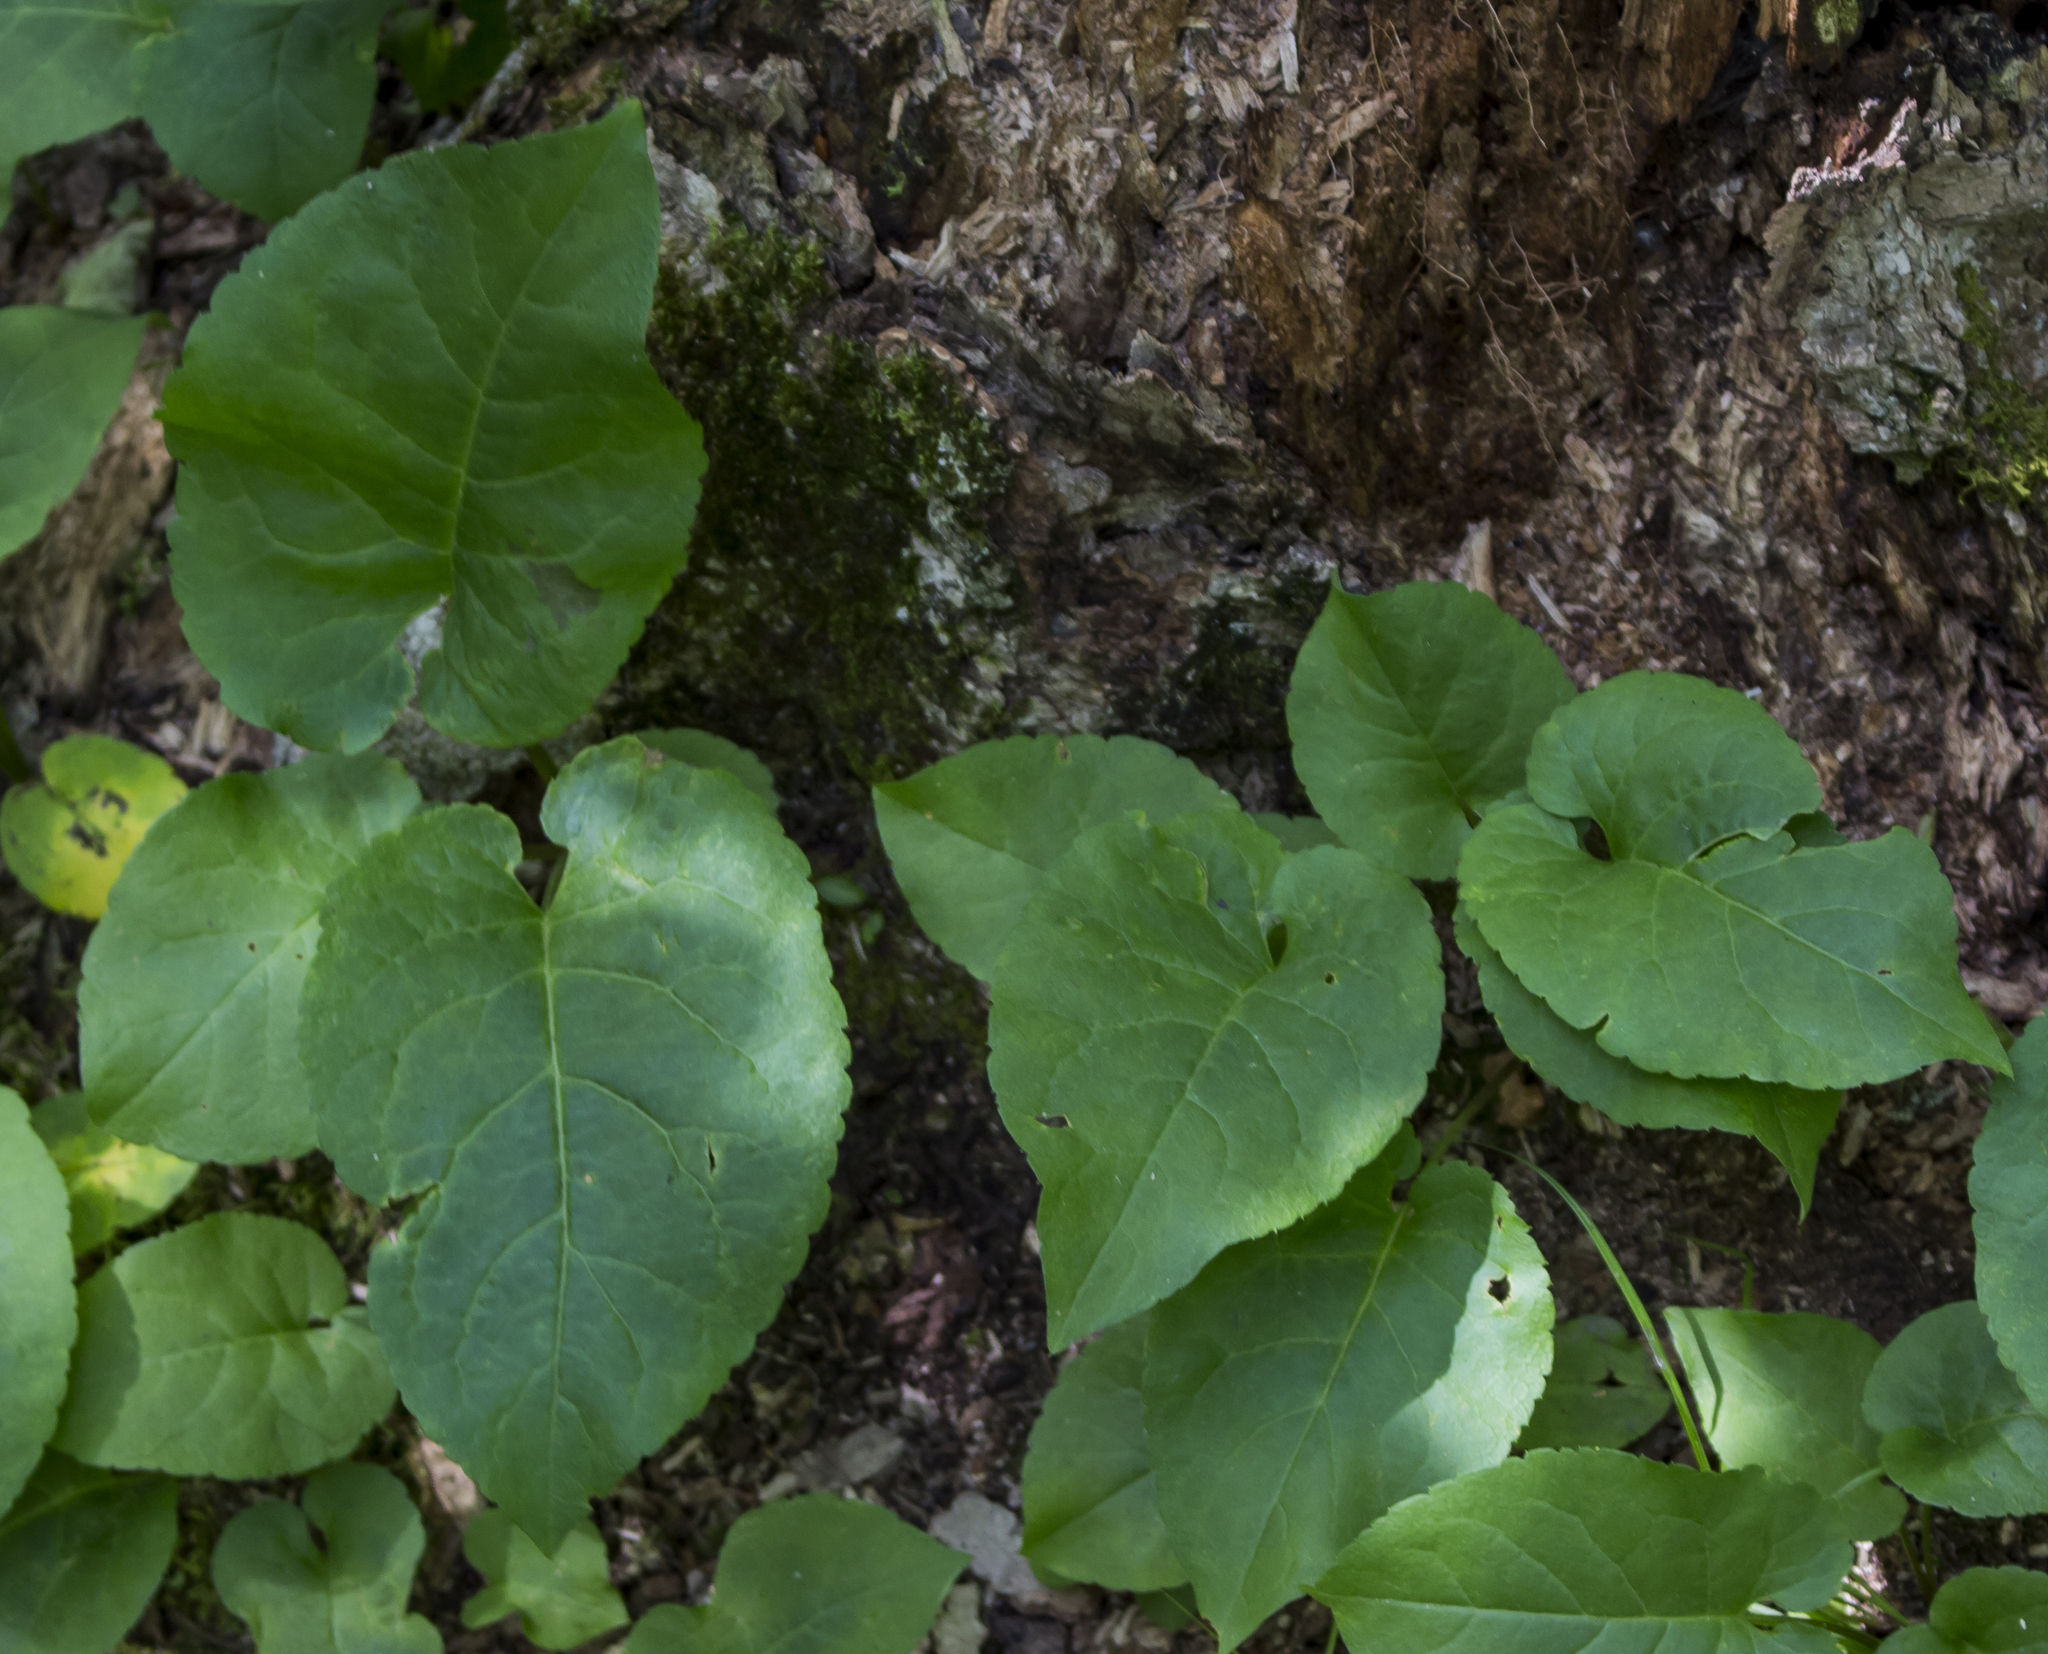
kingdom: Plantae
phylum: Tracheophyta
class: Magnoliopsida
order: Asterales
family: Asteraceae
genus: Eurybia
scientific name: Eurybia macrophylla
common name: Big-leaved aster
